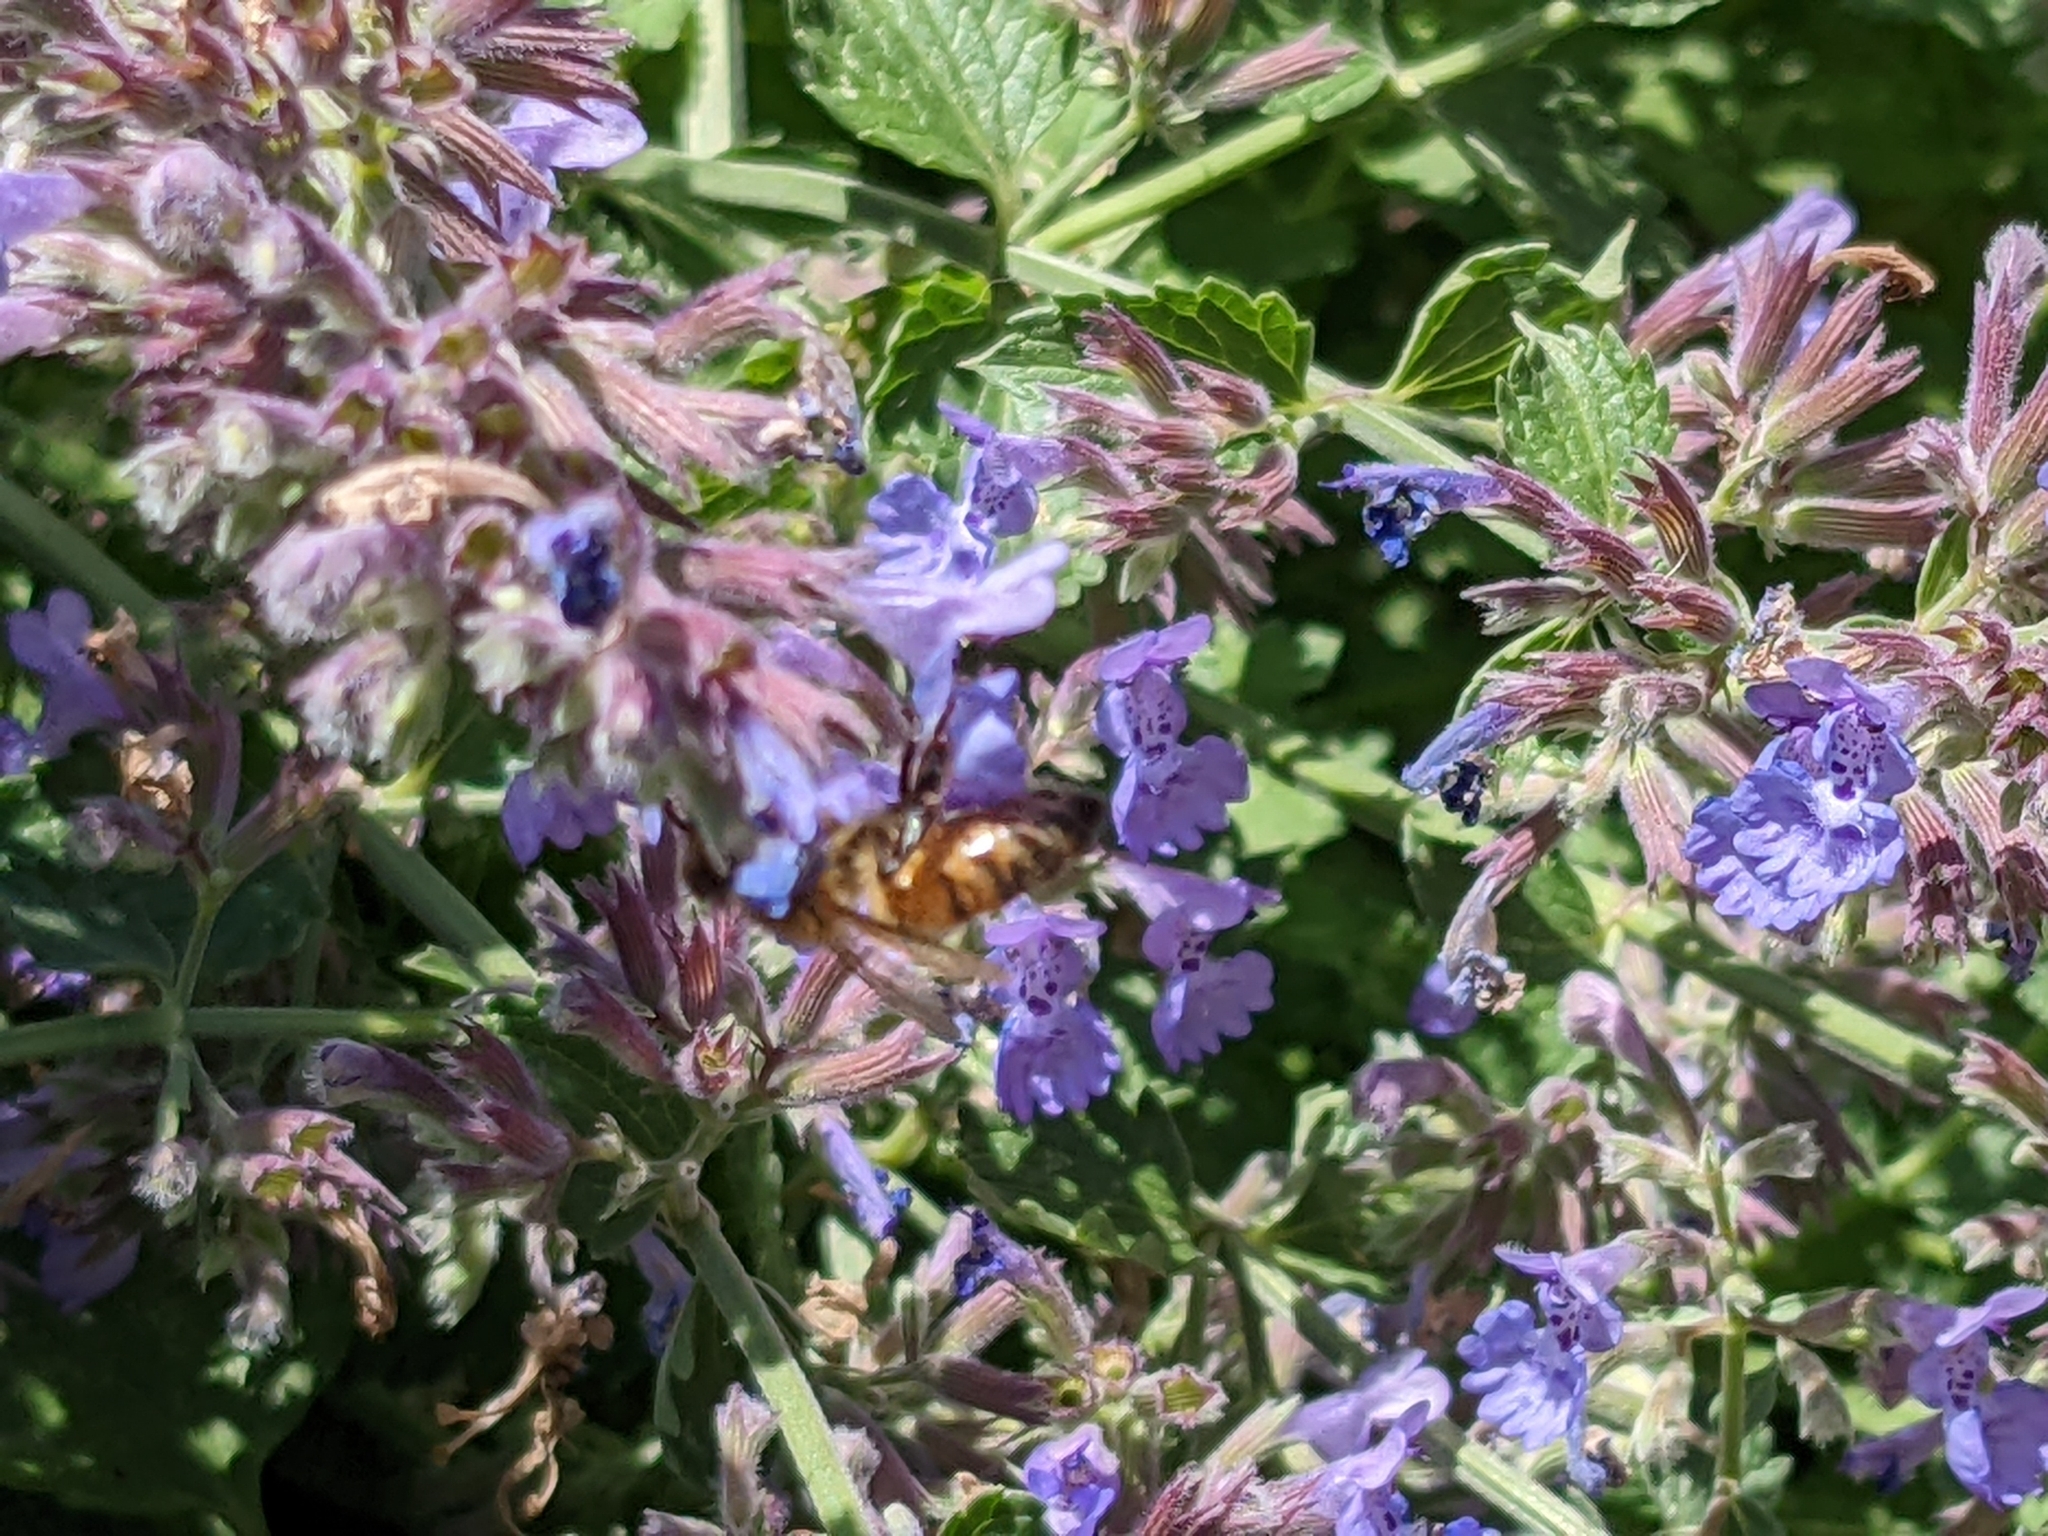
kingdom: Animalia
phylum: Arthropoda
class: Insecta
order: Hymenoptera
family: Apidae
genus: Apis
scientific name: Apis mellifera
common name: Honey bee
